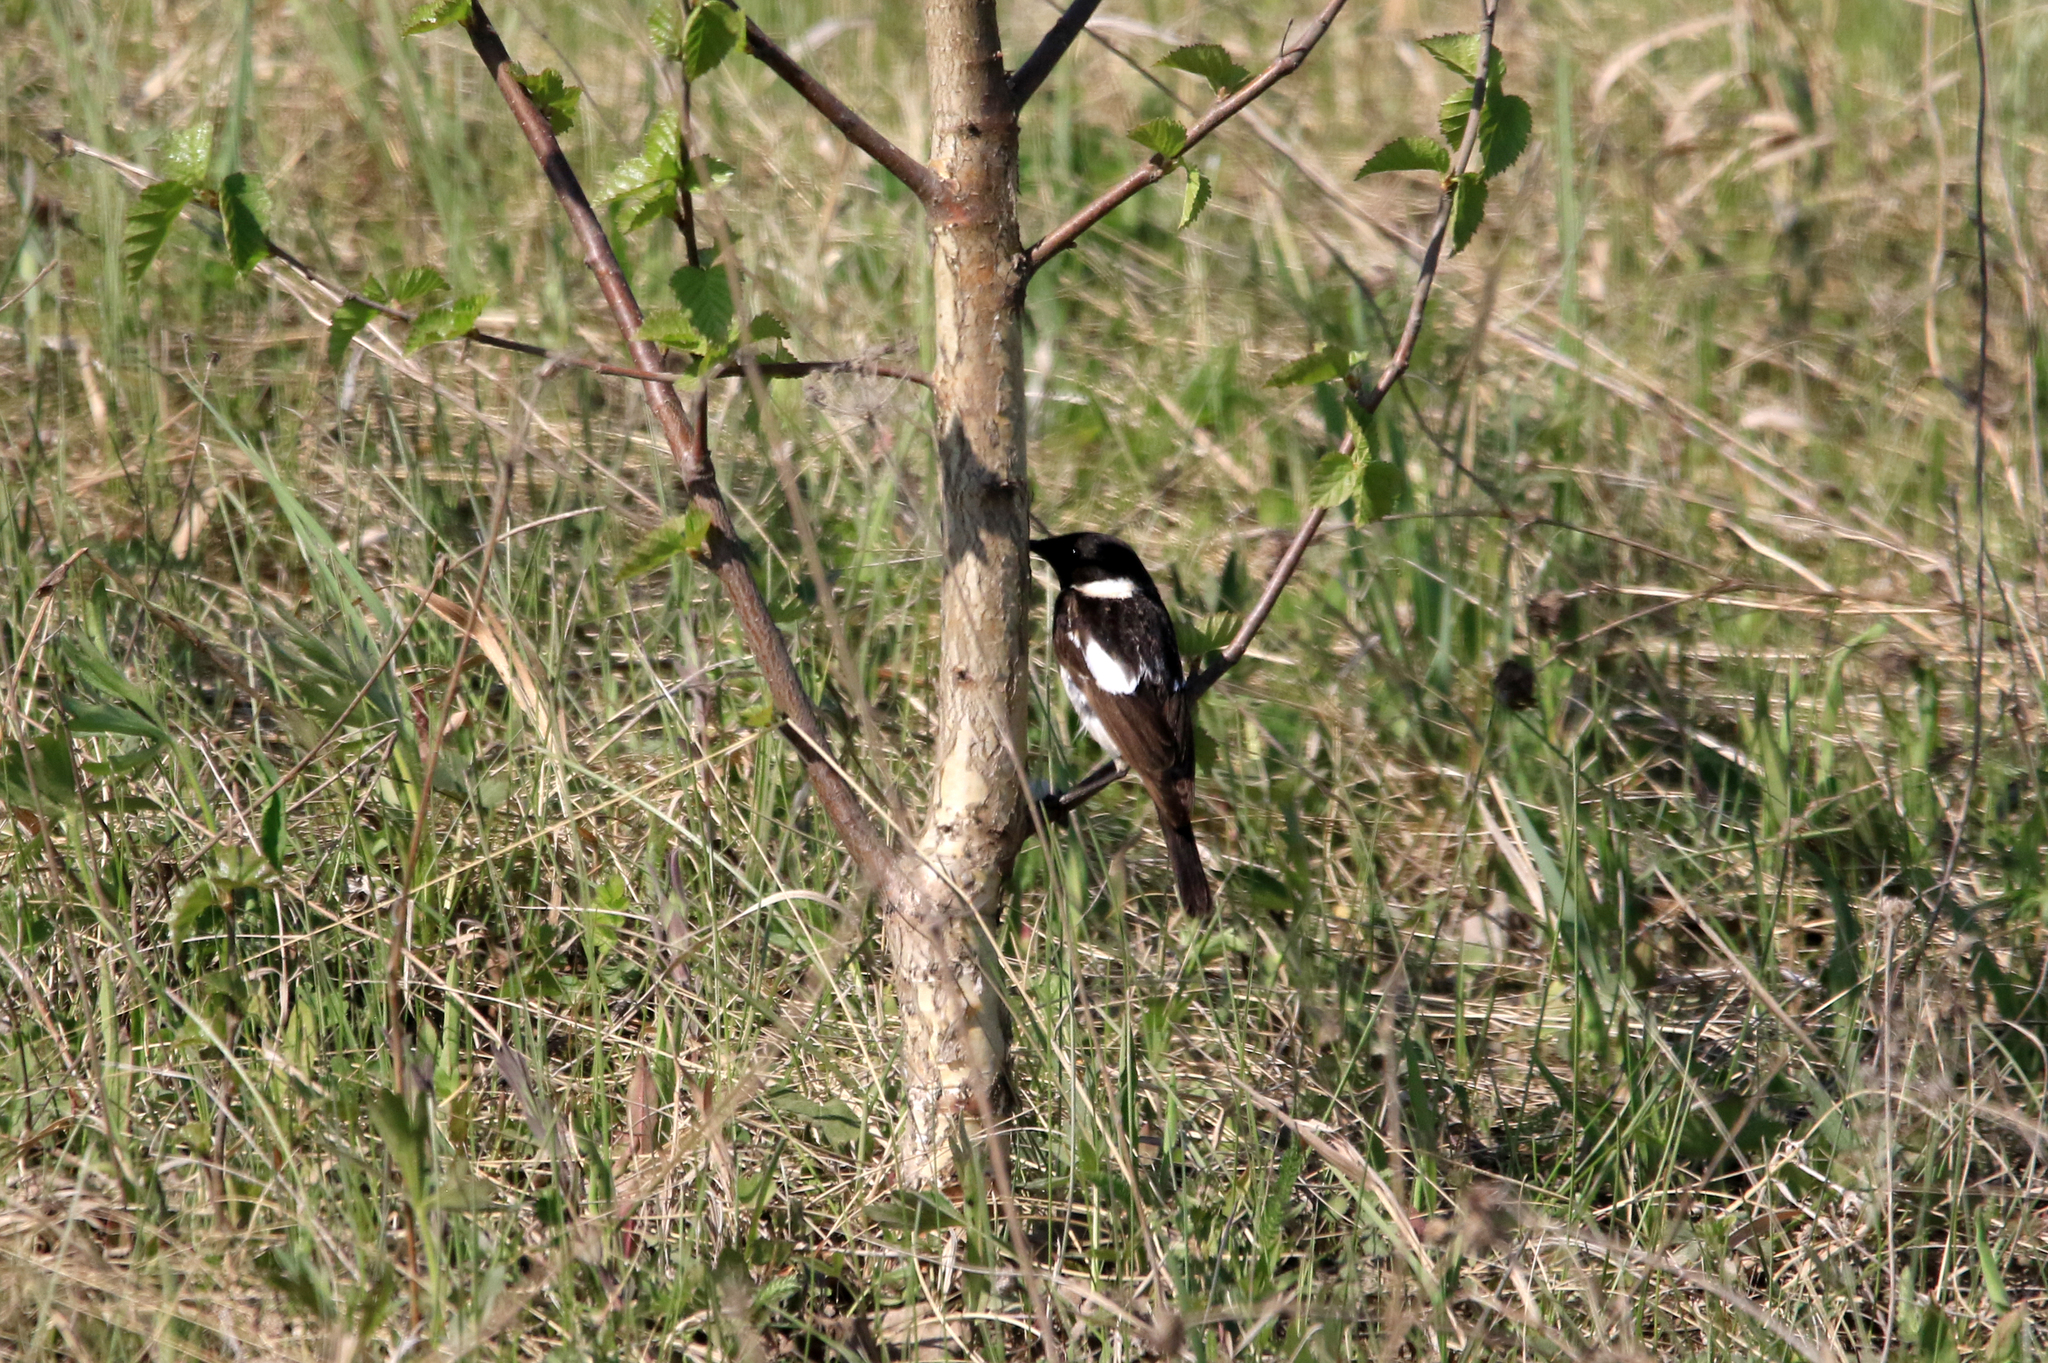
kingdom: Animalia
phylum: Chordata
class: Aves
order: Passeriformes
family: Muscicapidae
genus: Saxicola
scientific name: Saxicola maurus
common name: Siberian stonechat
